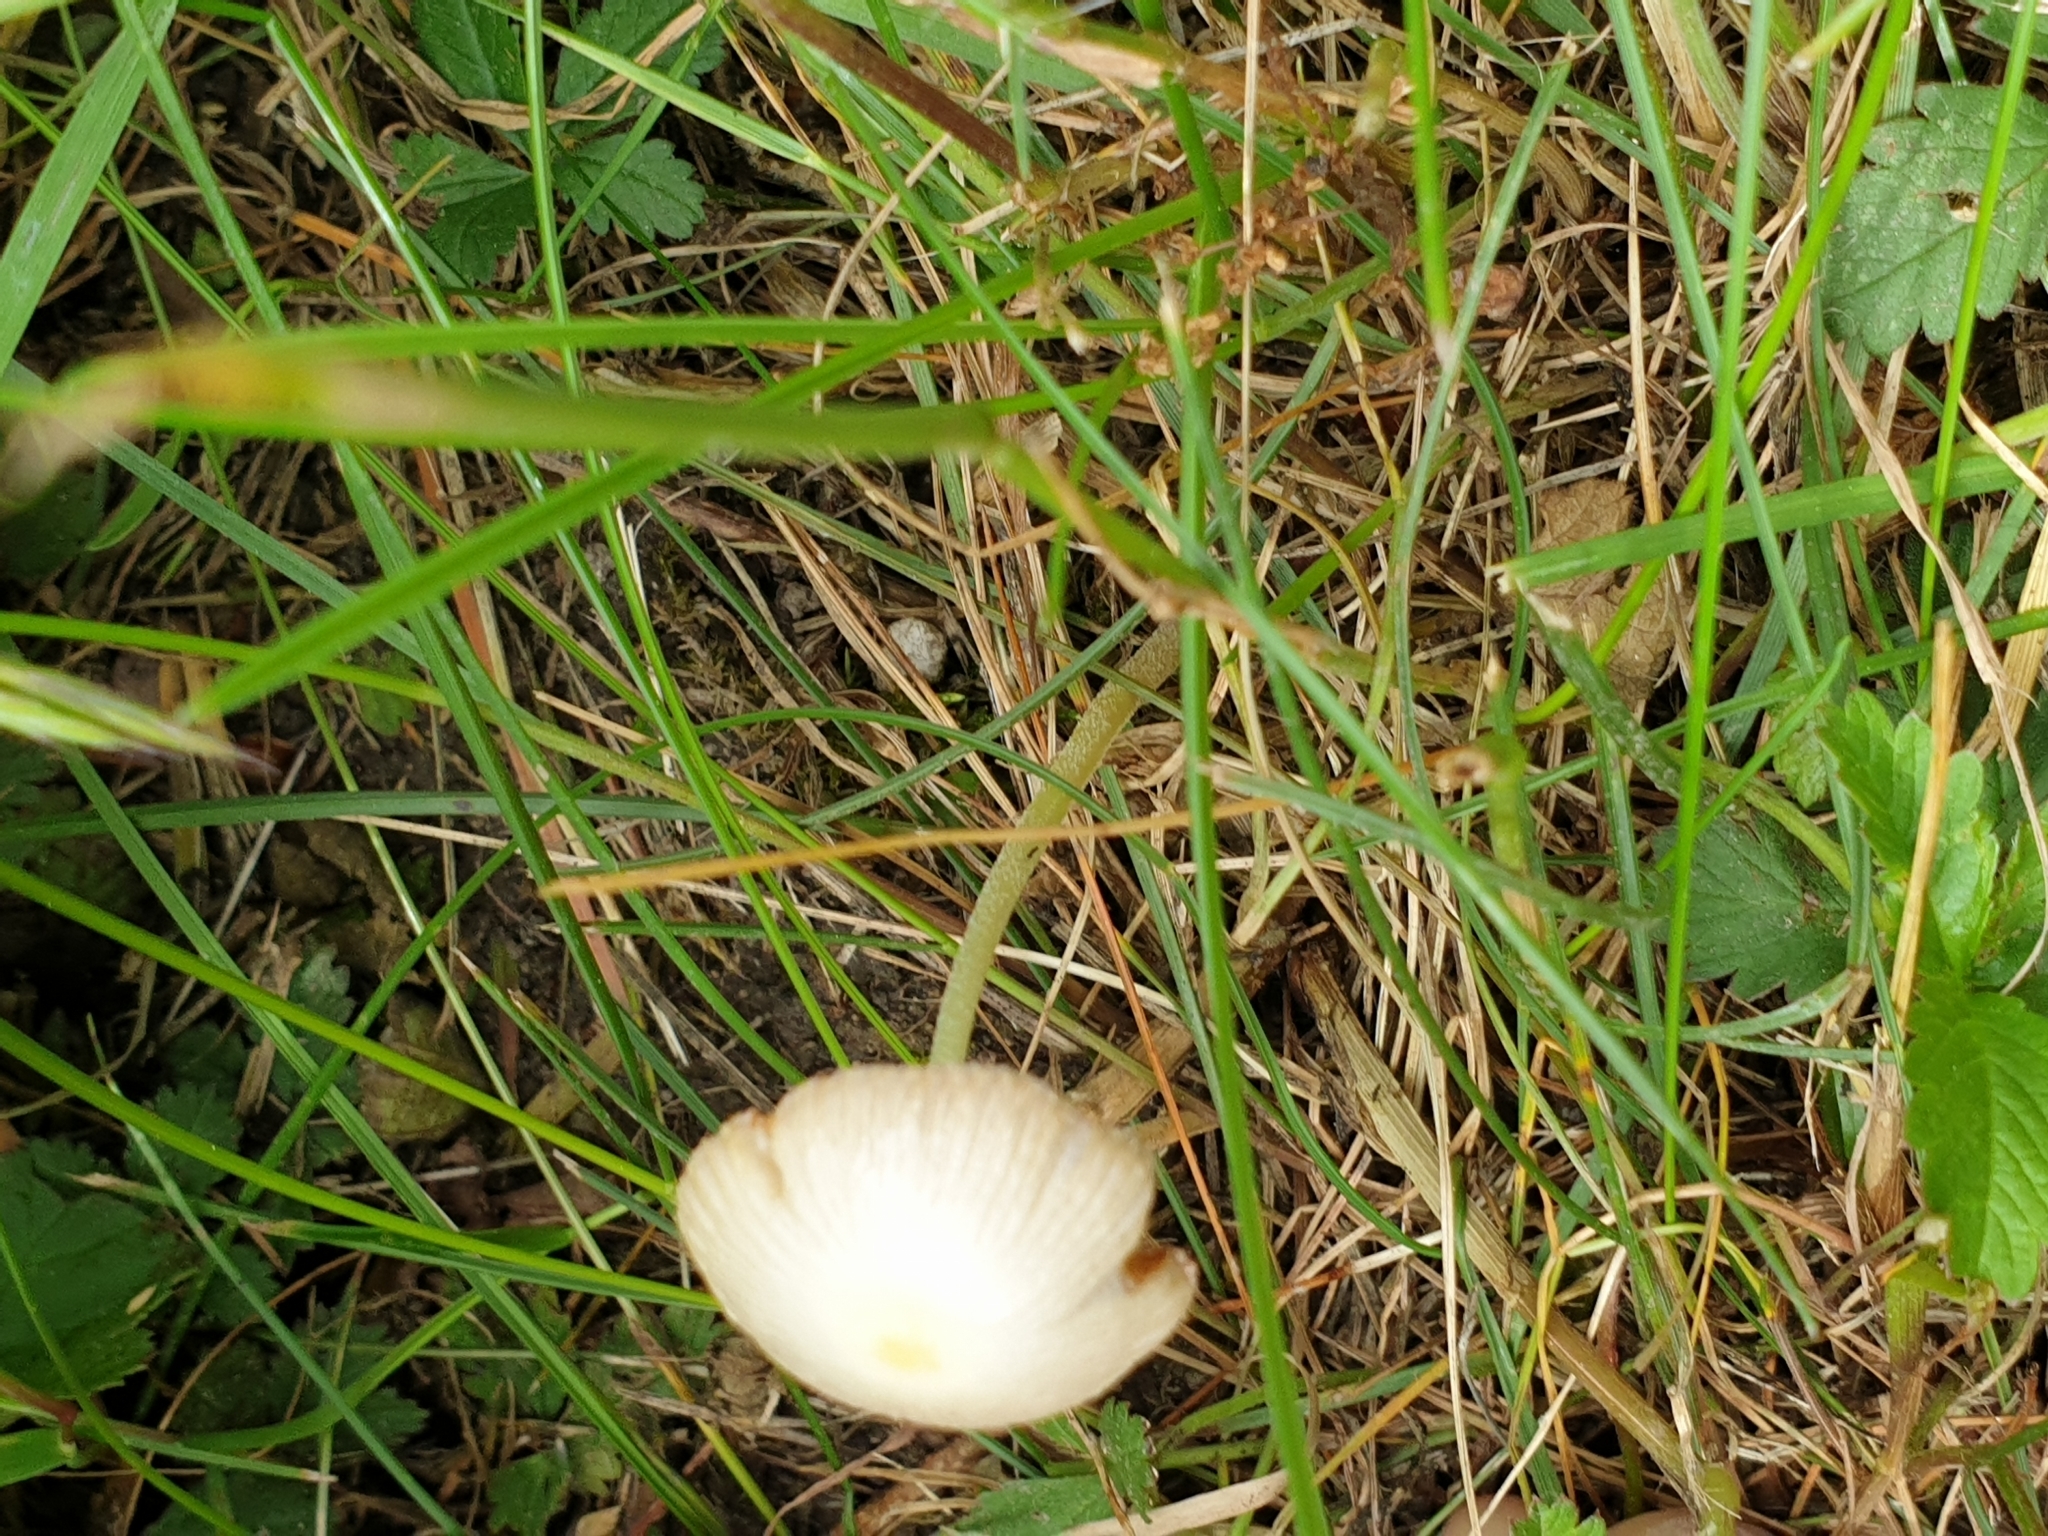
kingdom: Fungi
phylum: Basidiomycota
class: Agaricomycetes
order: Agaricales
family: Bolbitiaceae
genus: Conocybe
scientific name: Conocybe apala
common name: Milky conecap
